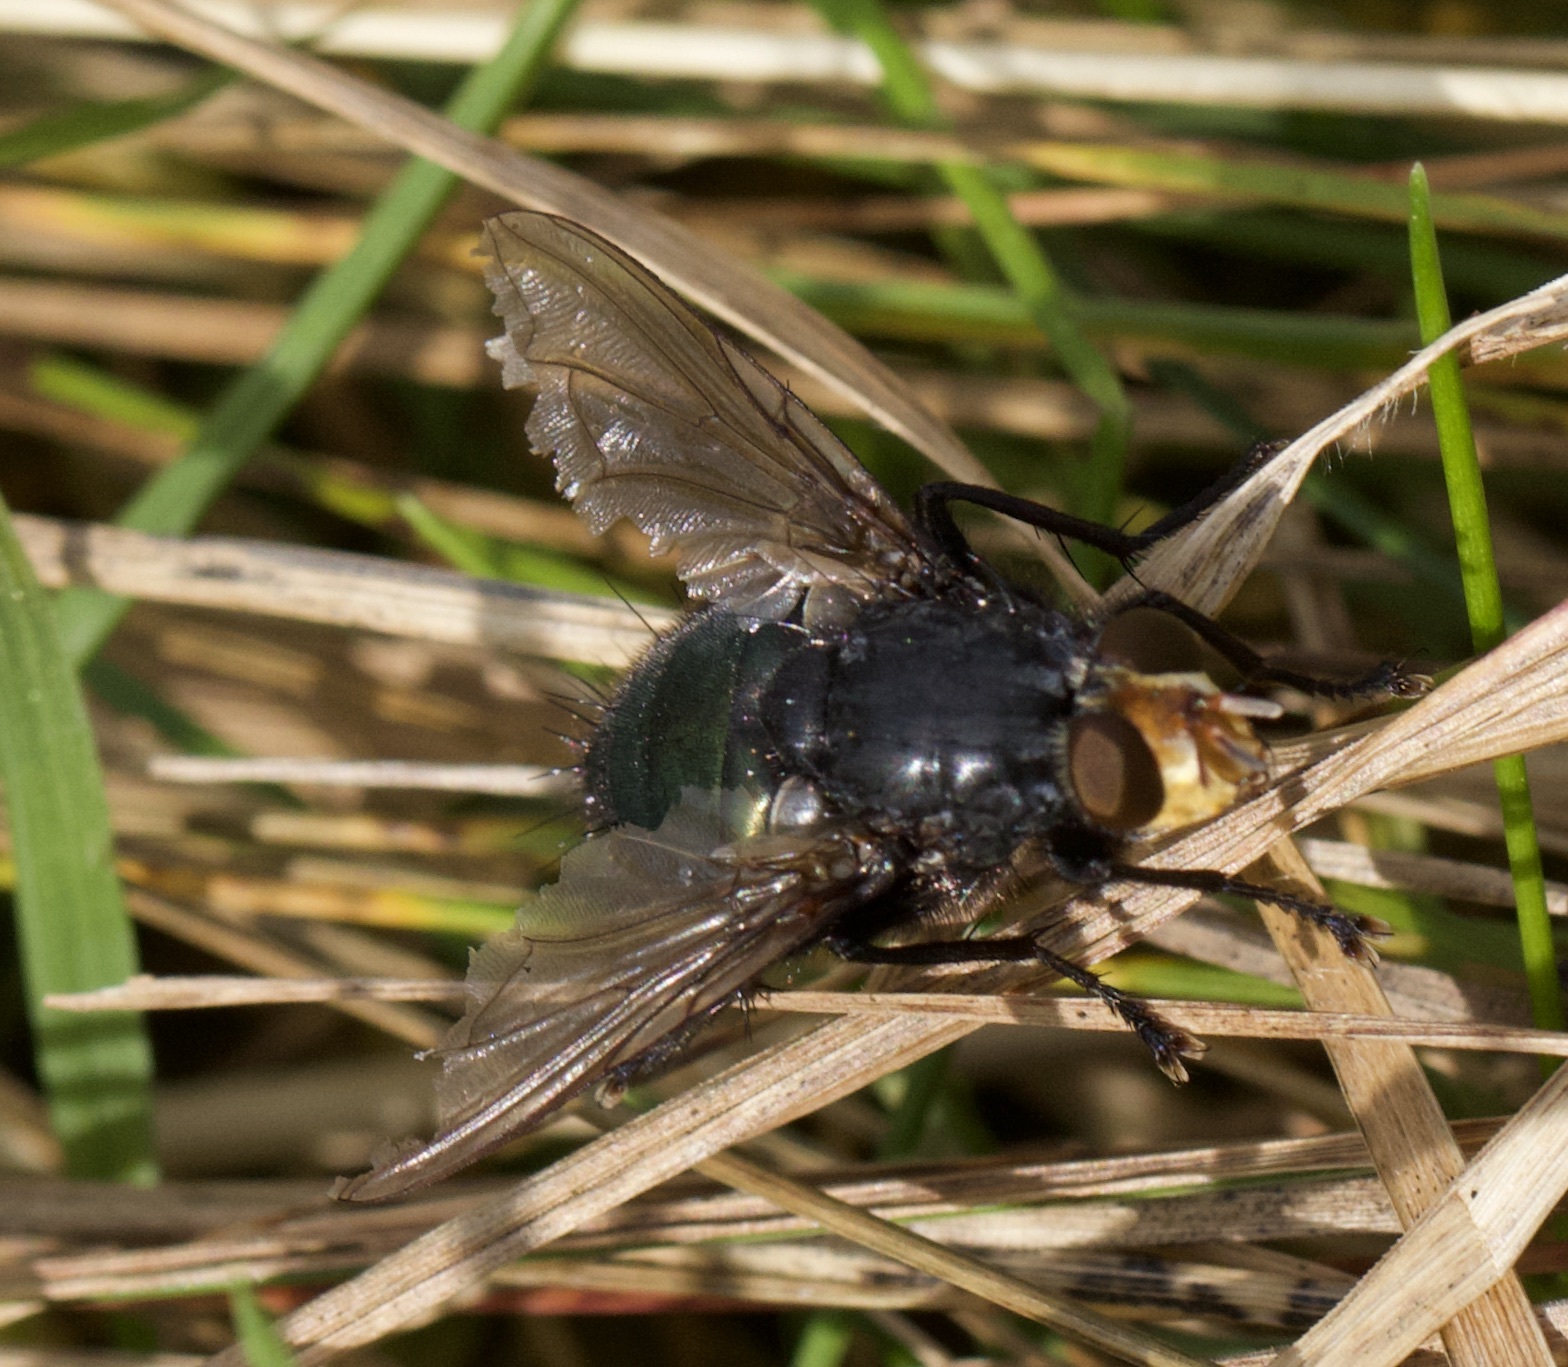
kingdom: Animalia
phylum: Arthropoda
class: Insecta
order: Diptera
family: Calliphoridae
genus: Cynomya
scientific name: Cynomya mortuorum
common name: Bluebottle blow fly
